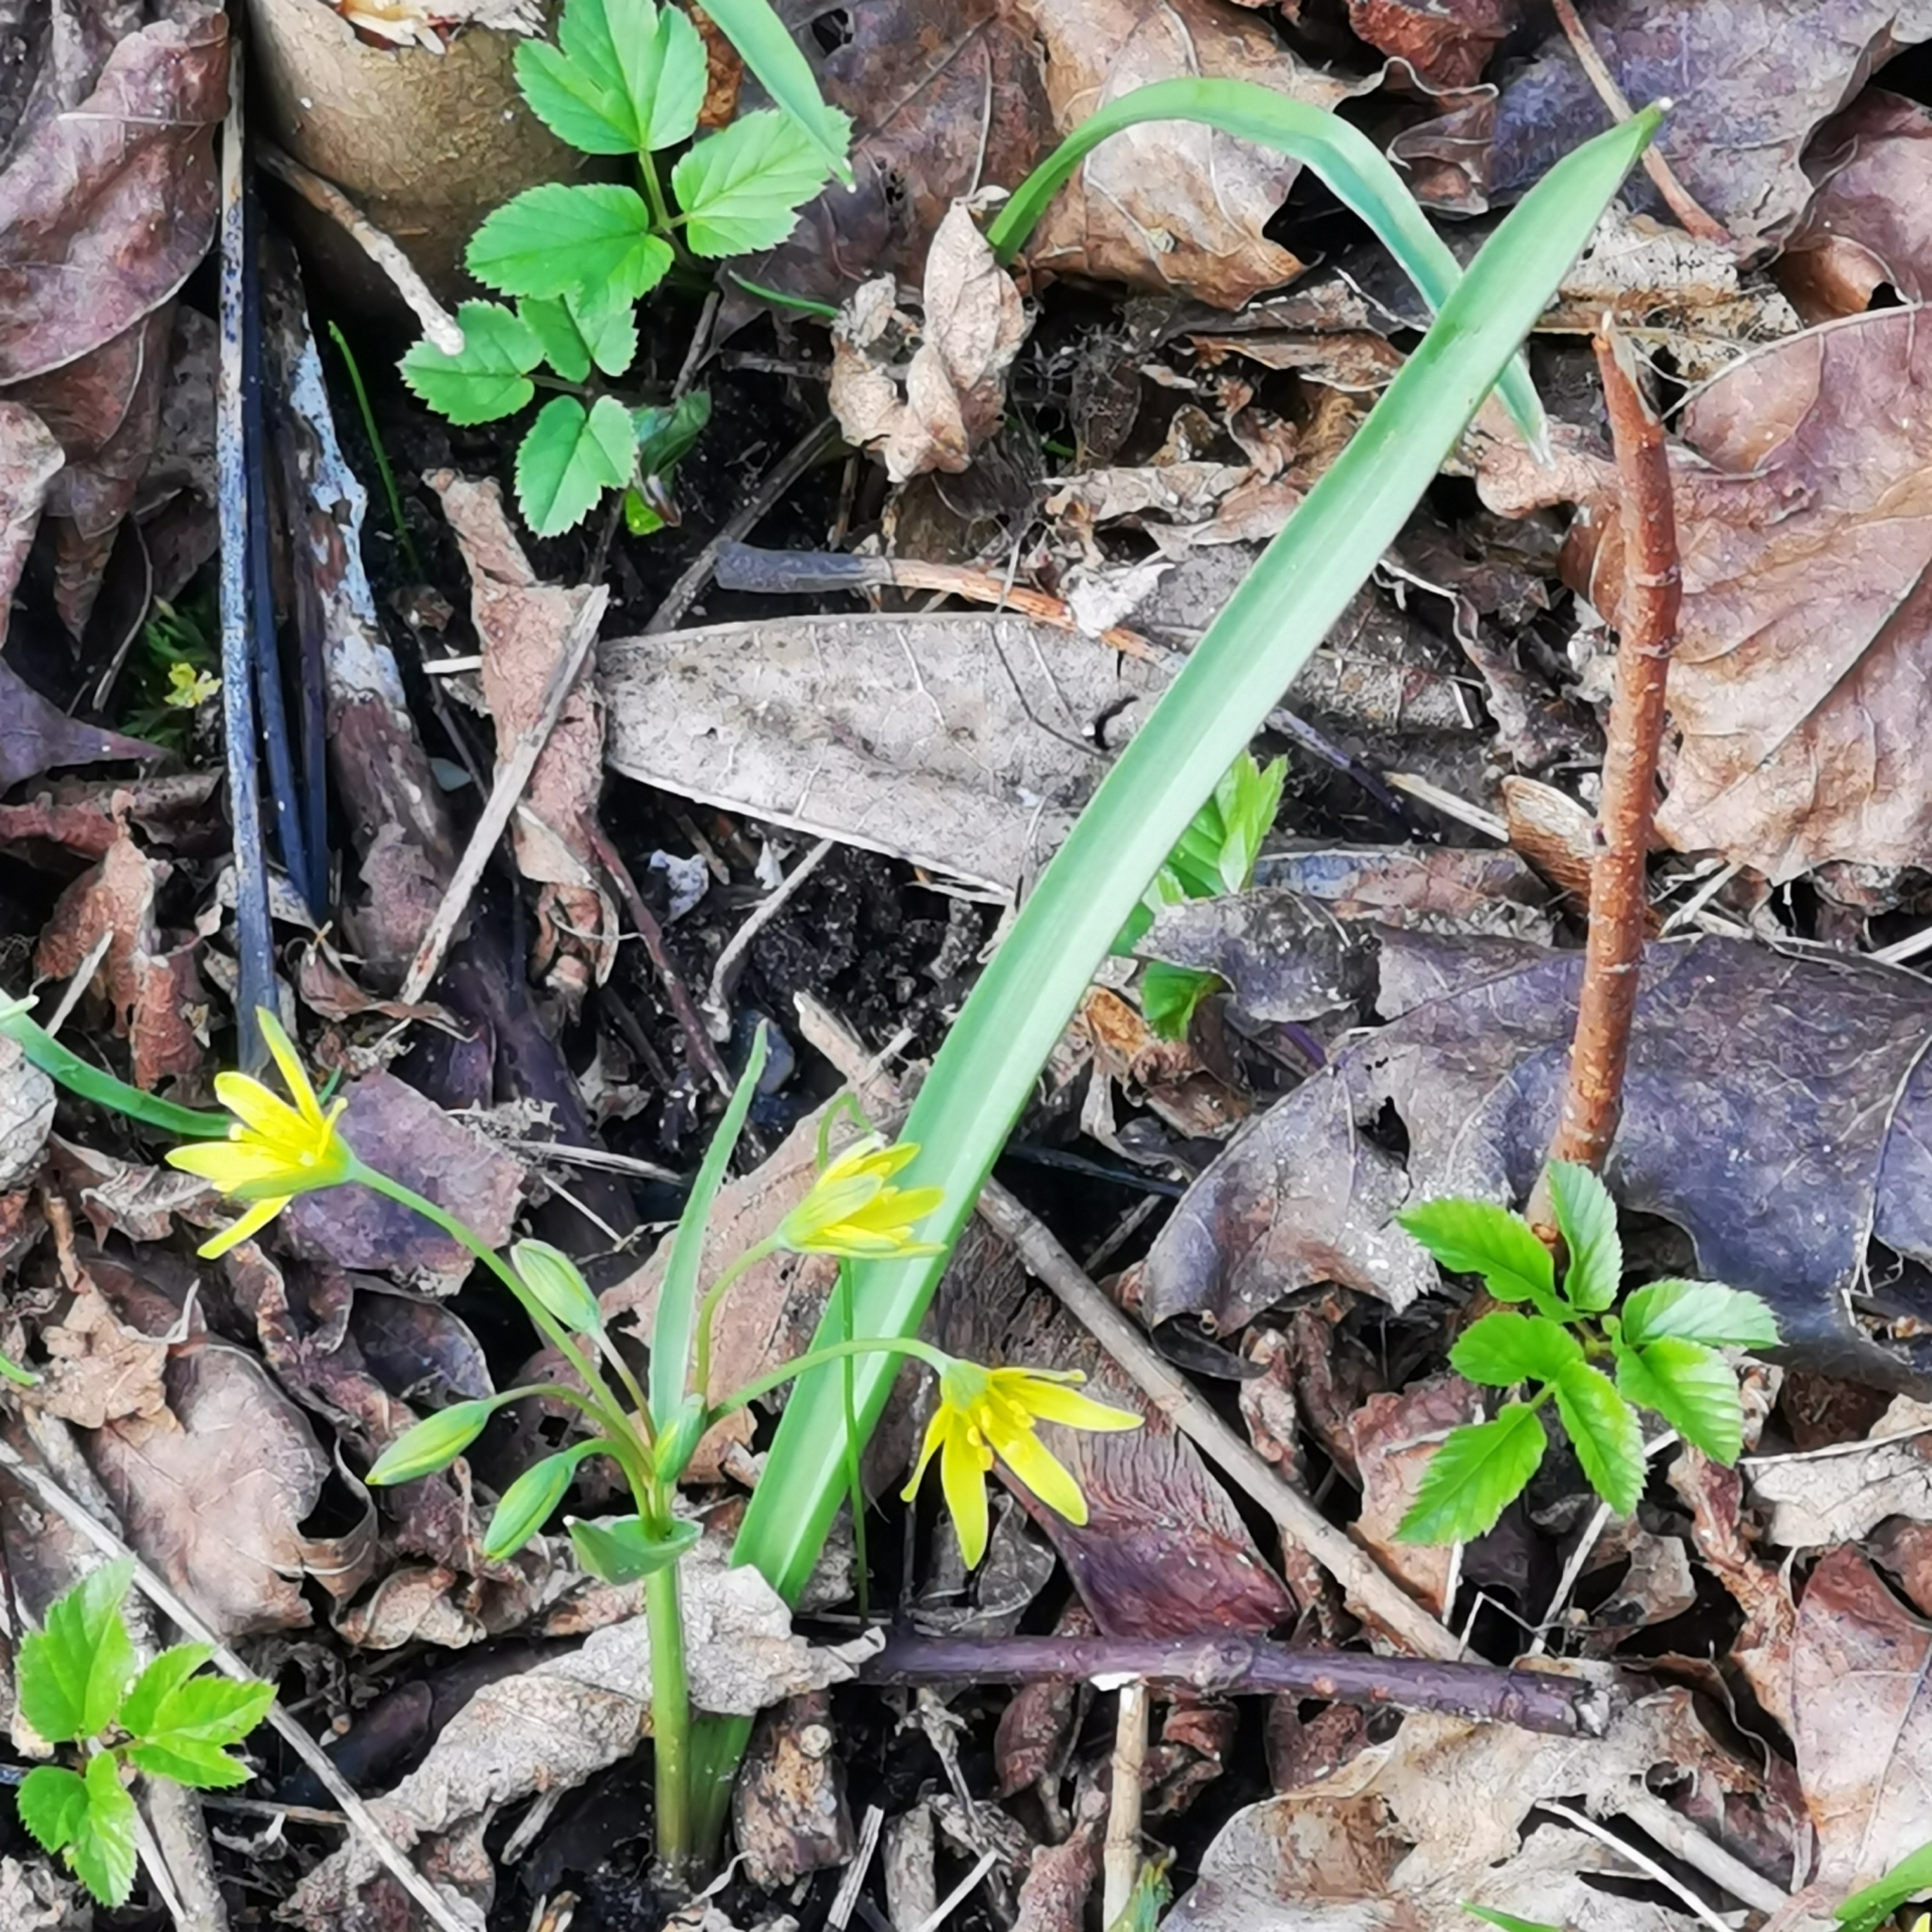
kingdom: Plantae
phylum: Tracheophyta
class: Liliopsida
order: Liliales
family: Liliaceae
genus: Gagea
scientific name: Gagea lutea
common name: Yellow star-of-bethlehem
